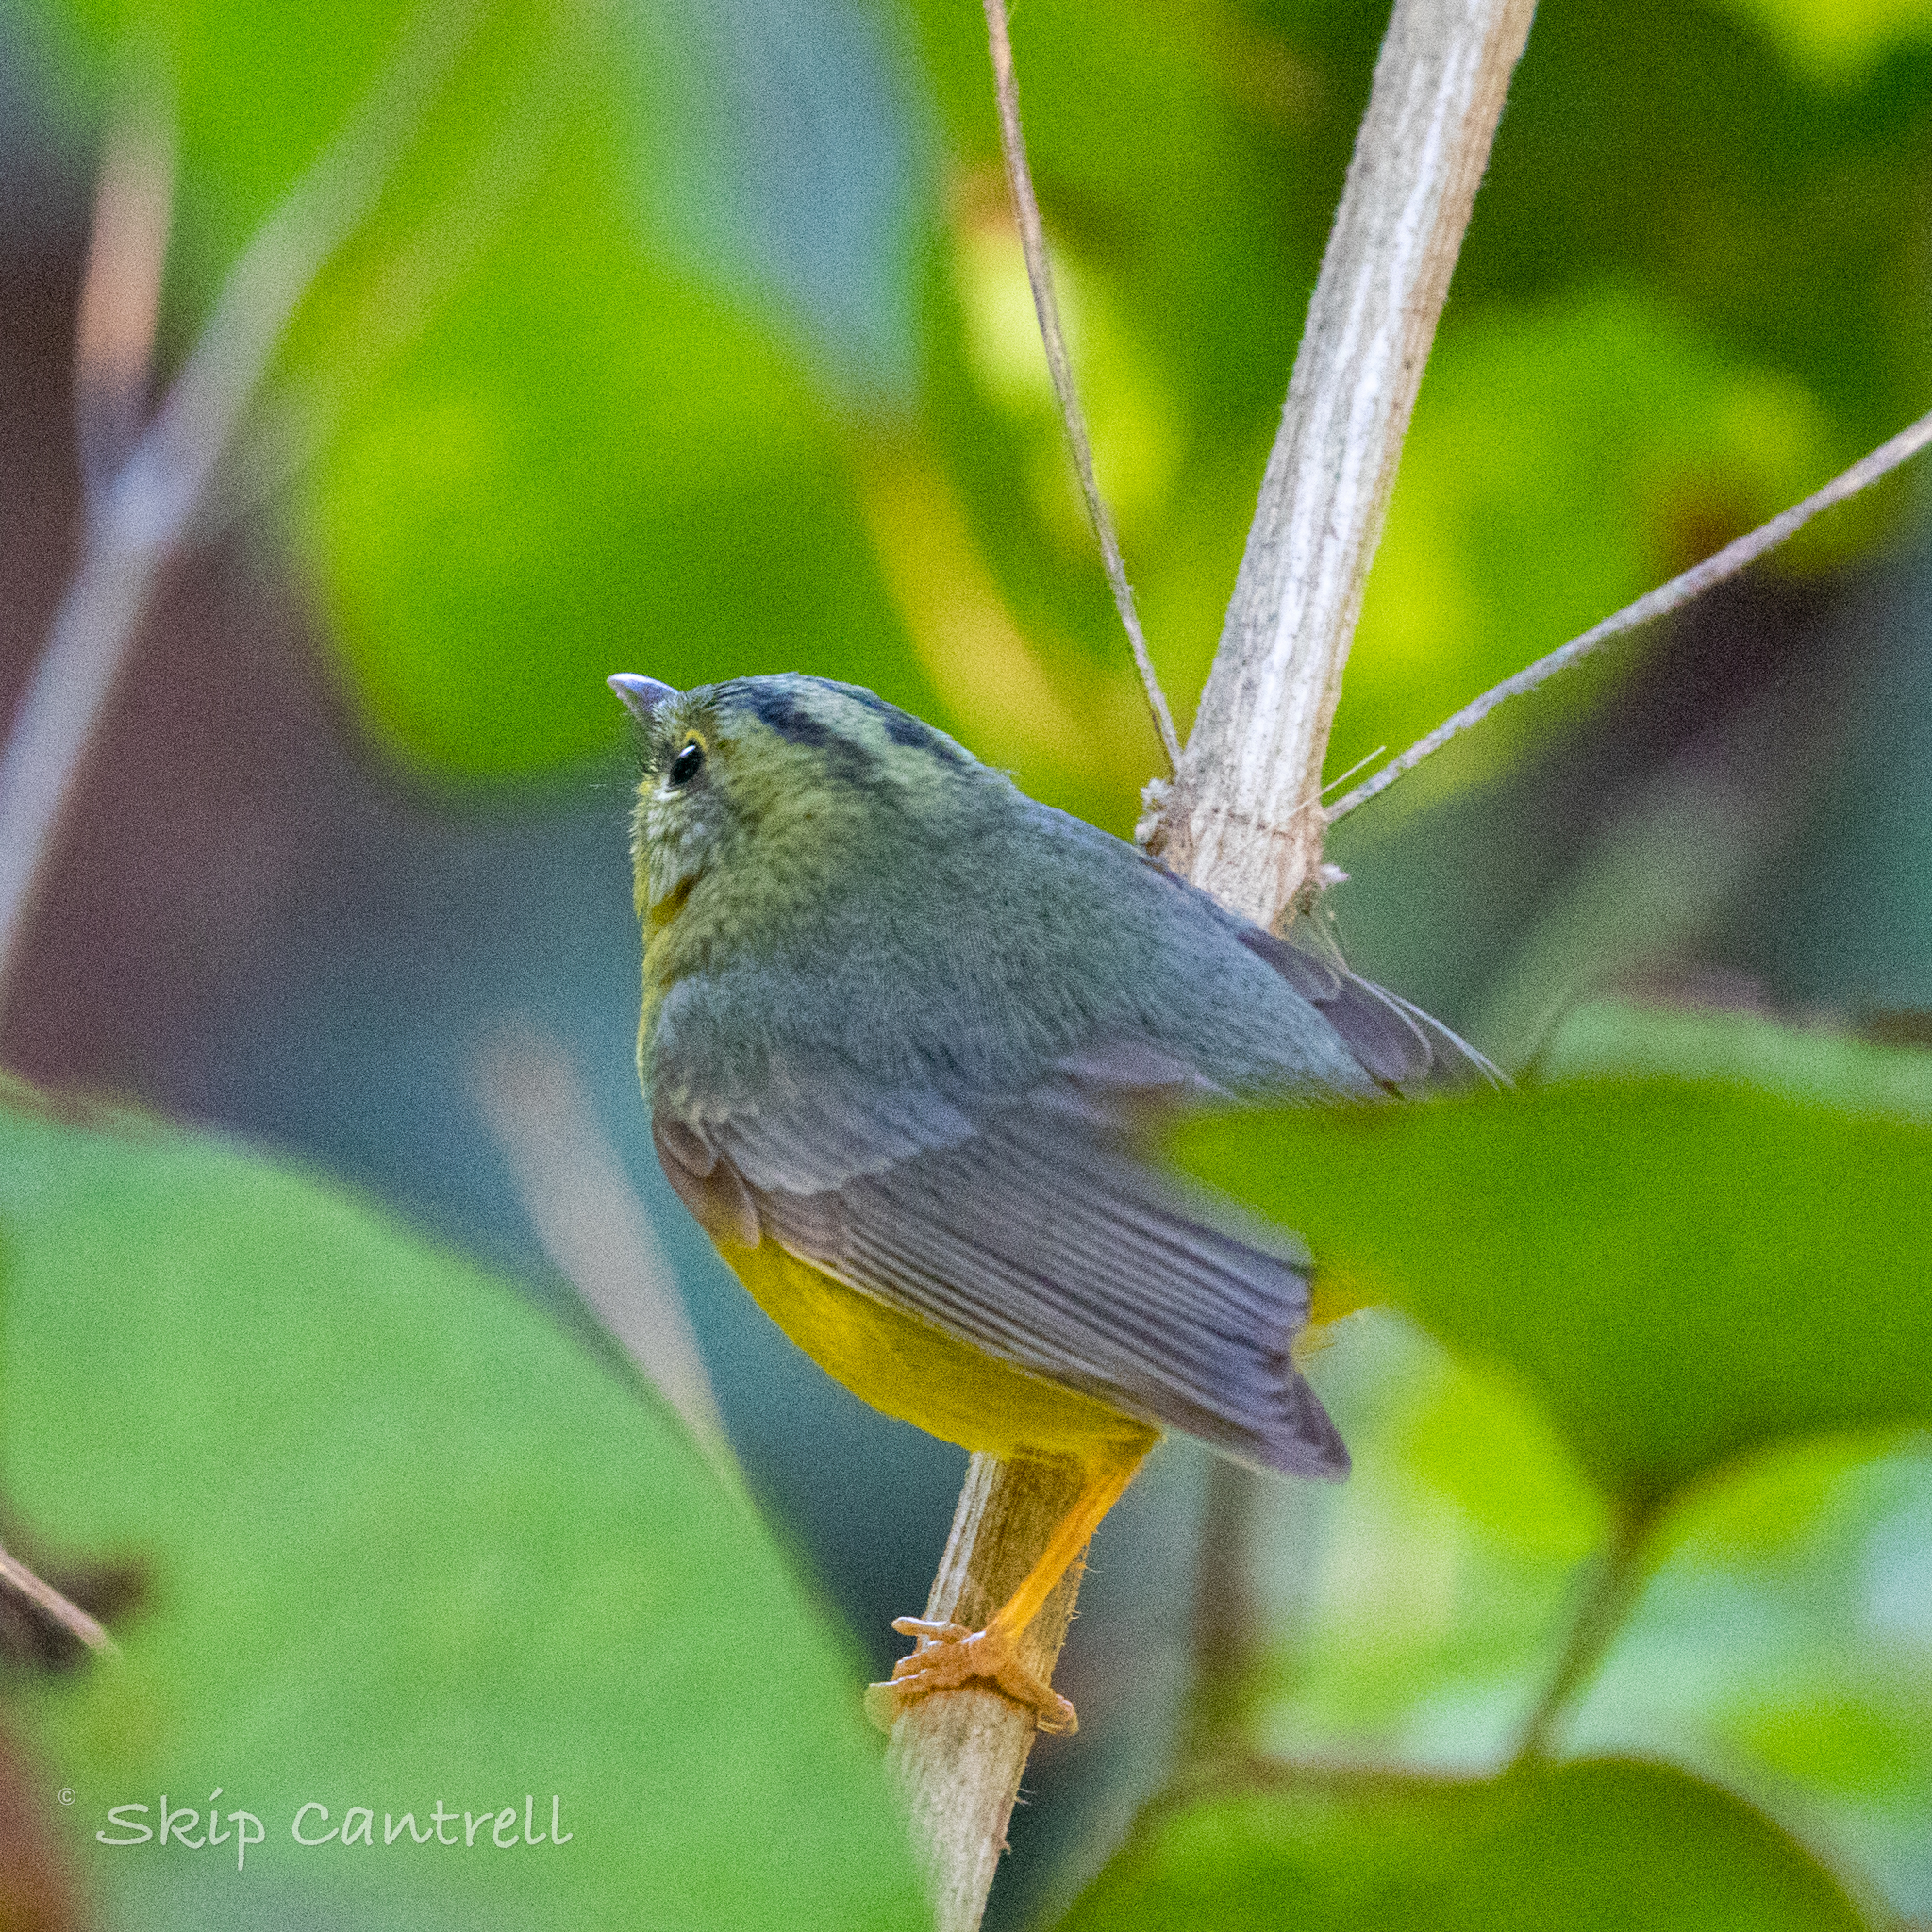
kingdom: Animalia
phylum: Chordata
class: Aves
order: Passeriformes
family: Parulidae
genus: Basileuterus
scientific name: Basileuterus culicivorus
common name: Golden-crowned warbler
